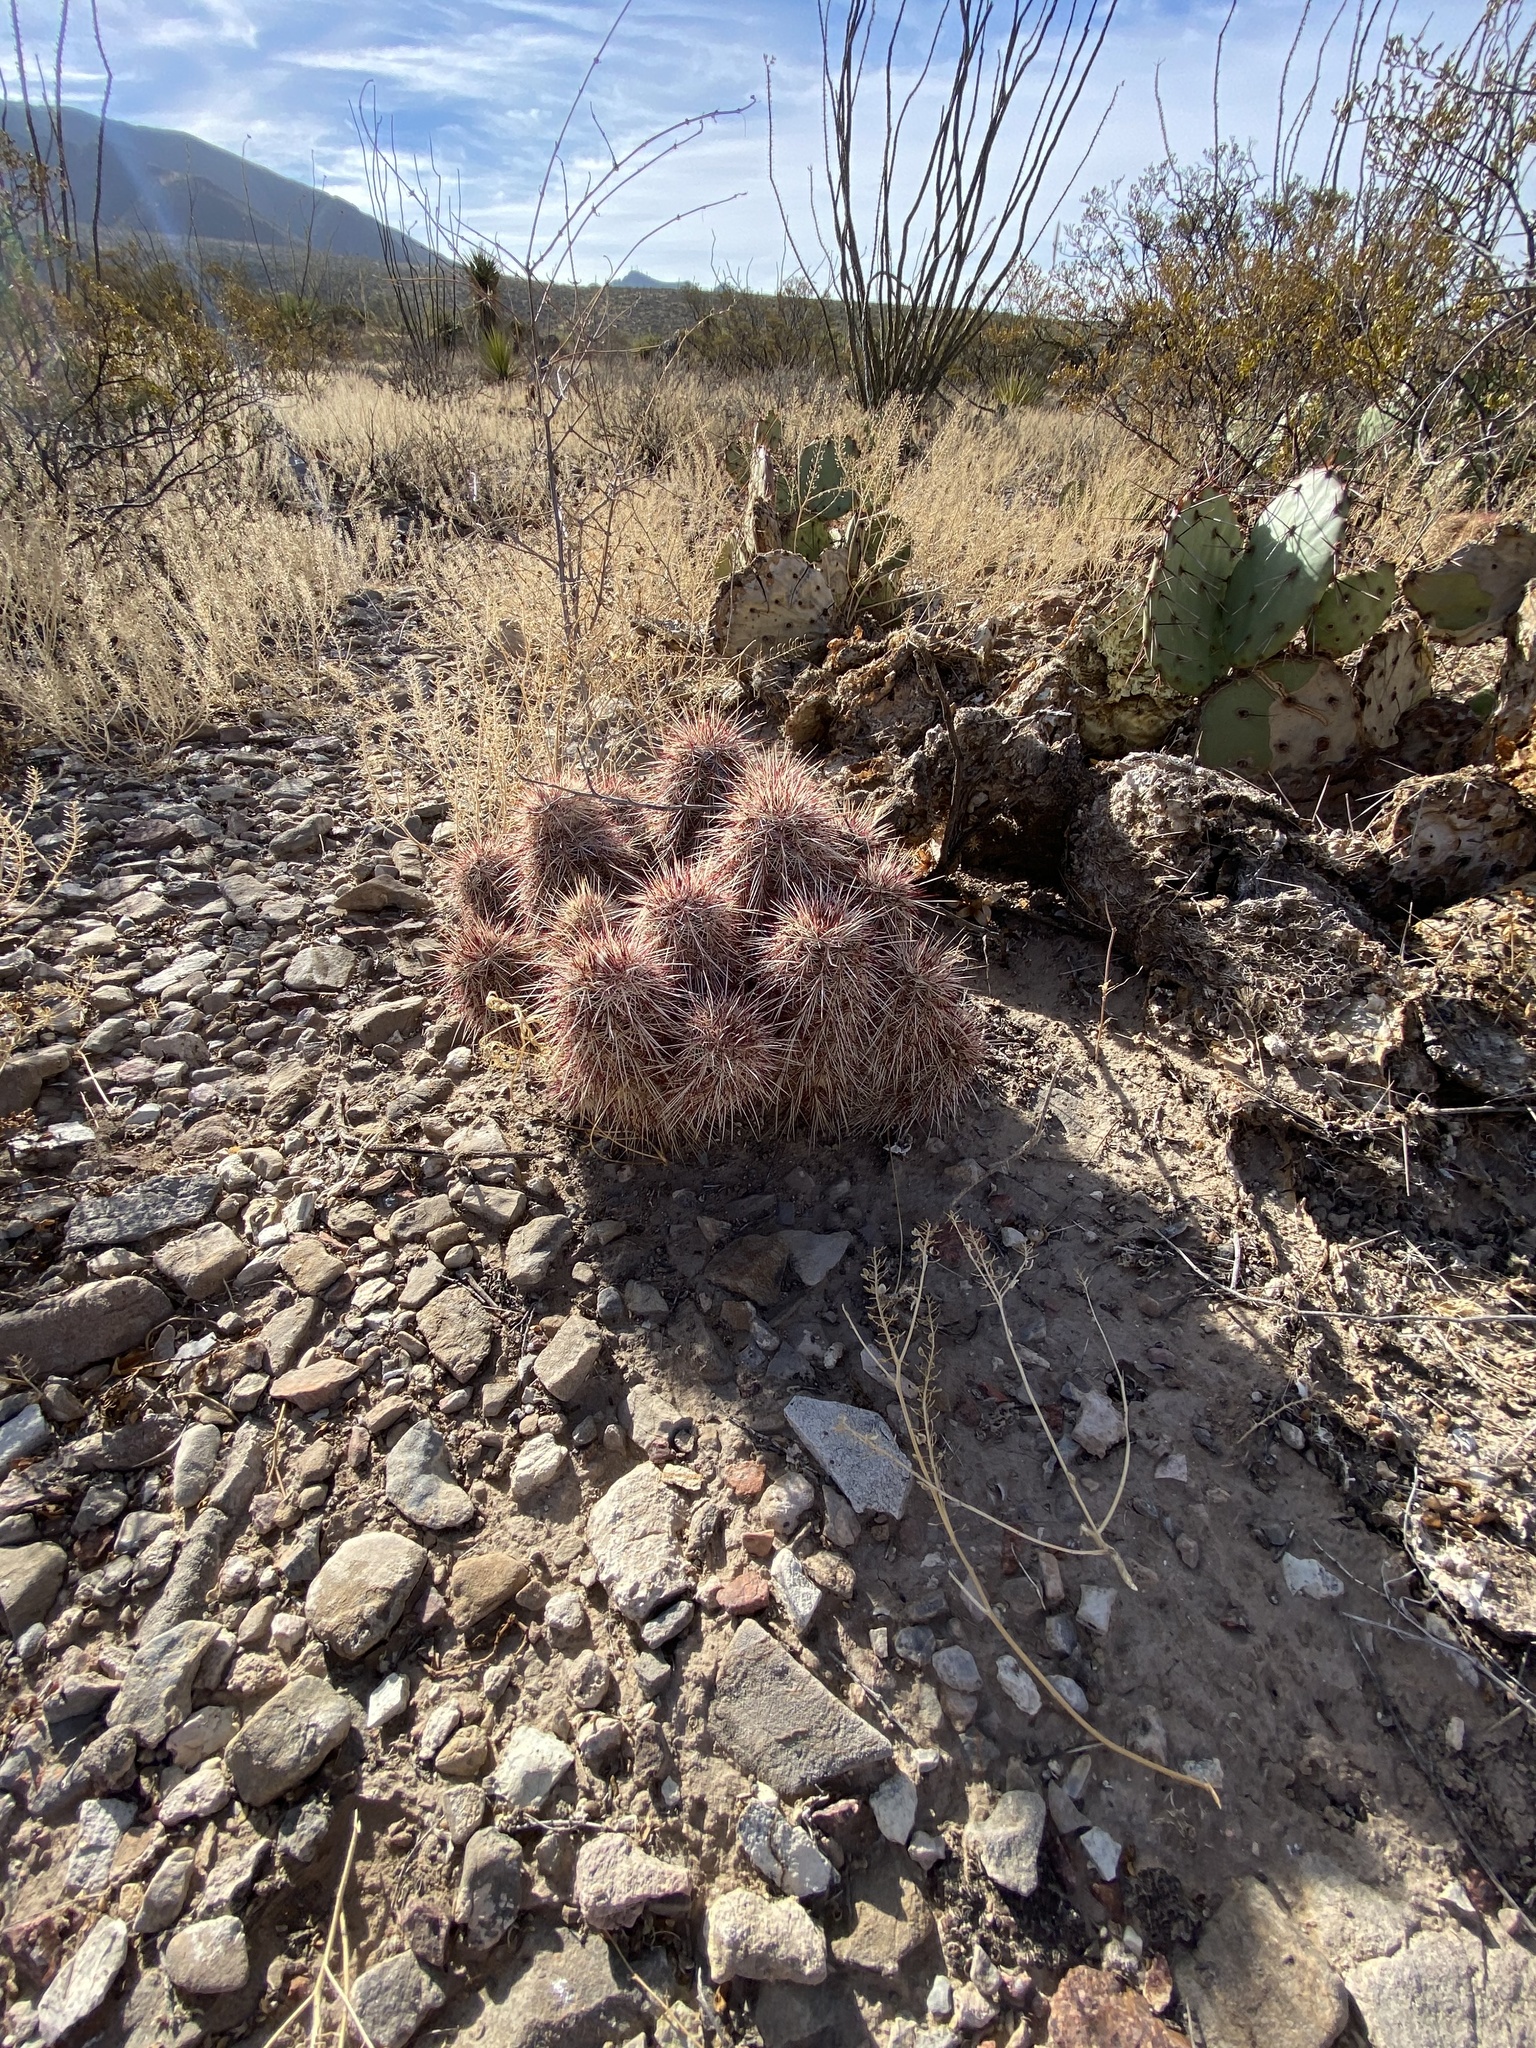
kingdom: Plantae
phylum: Tracheophyta
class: Magnoliopsida
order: Caryophyllales
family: Cactaceae
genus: Echinocereus
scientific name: Echinocereus viridiflorus
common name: Nylon hedgehog cactus
